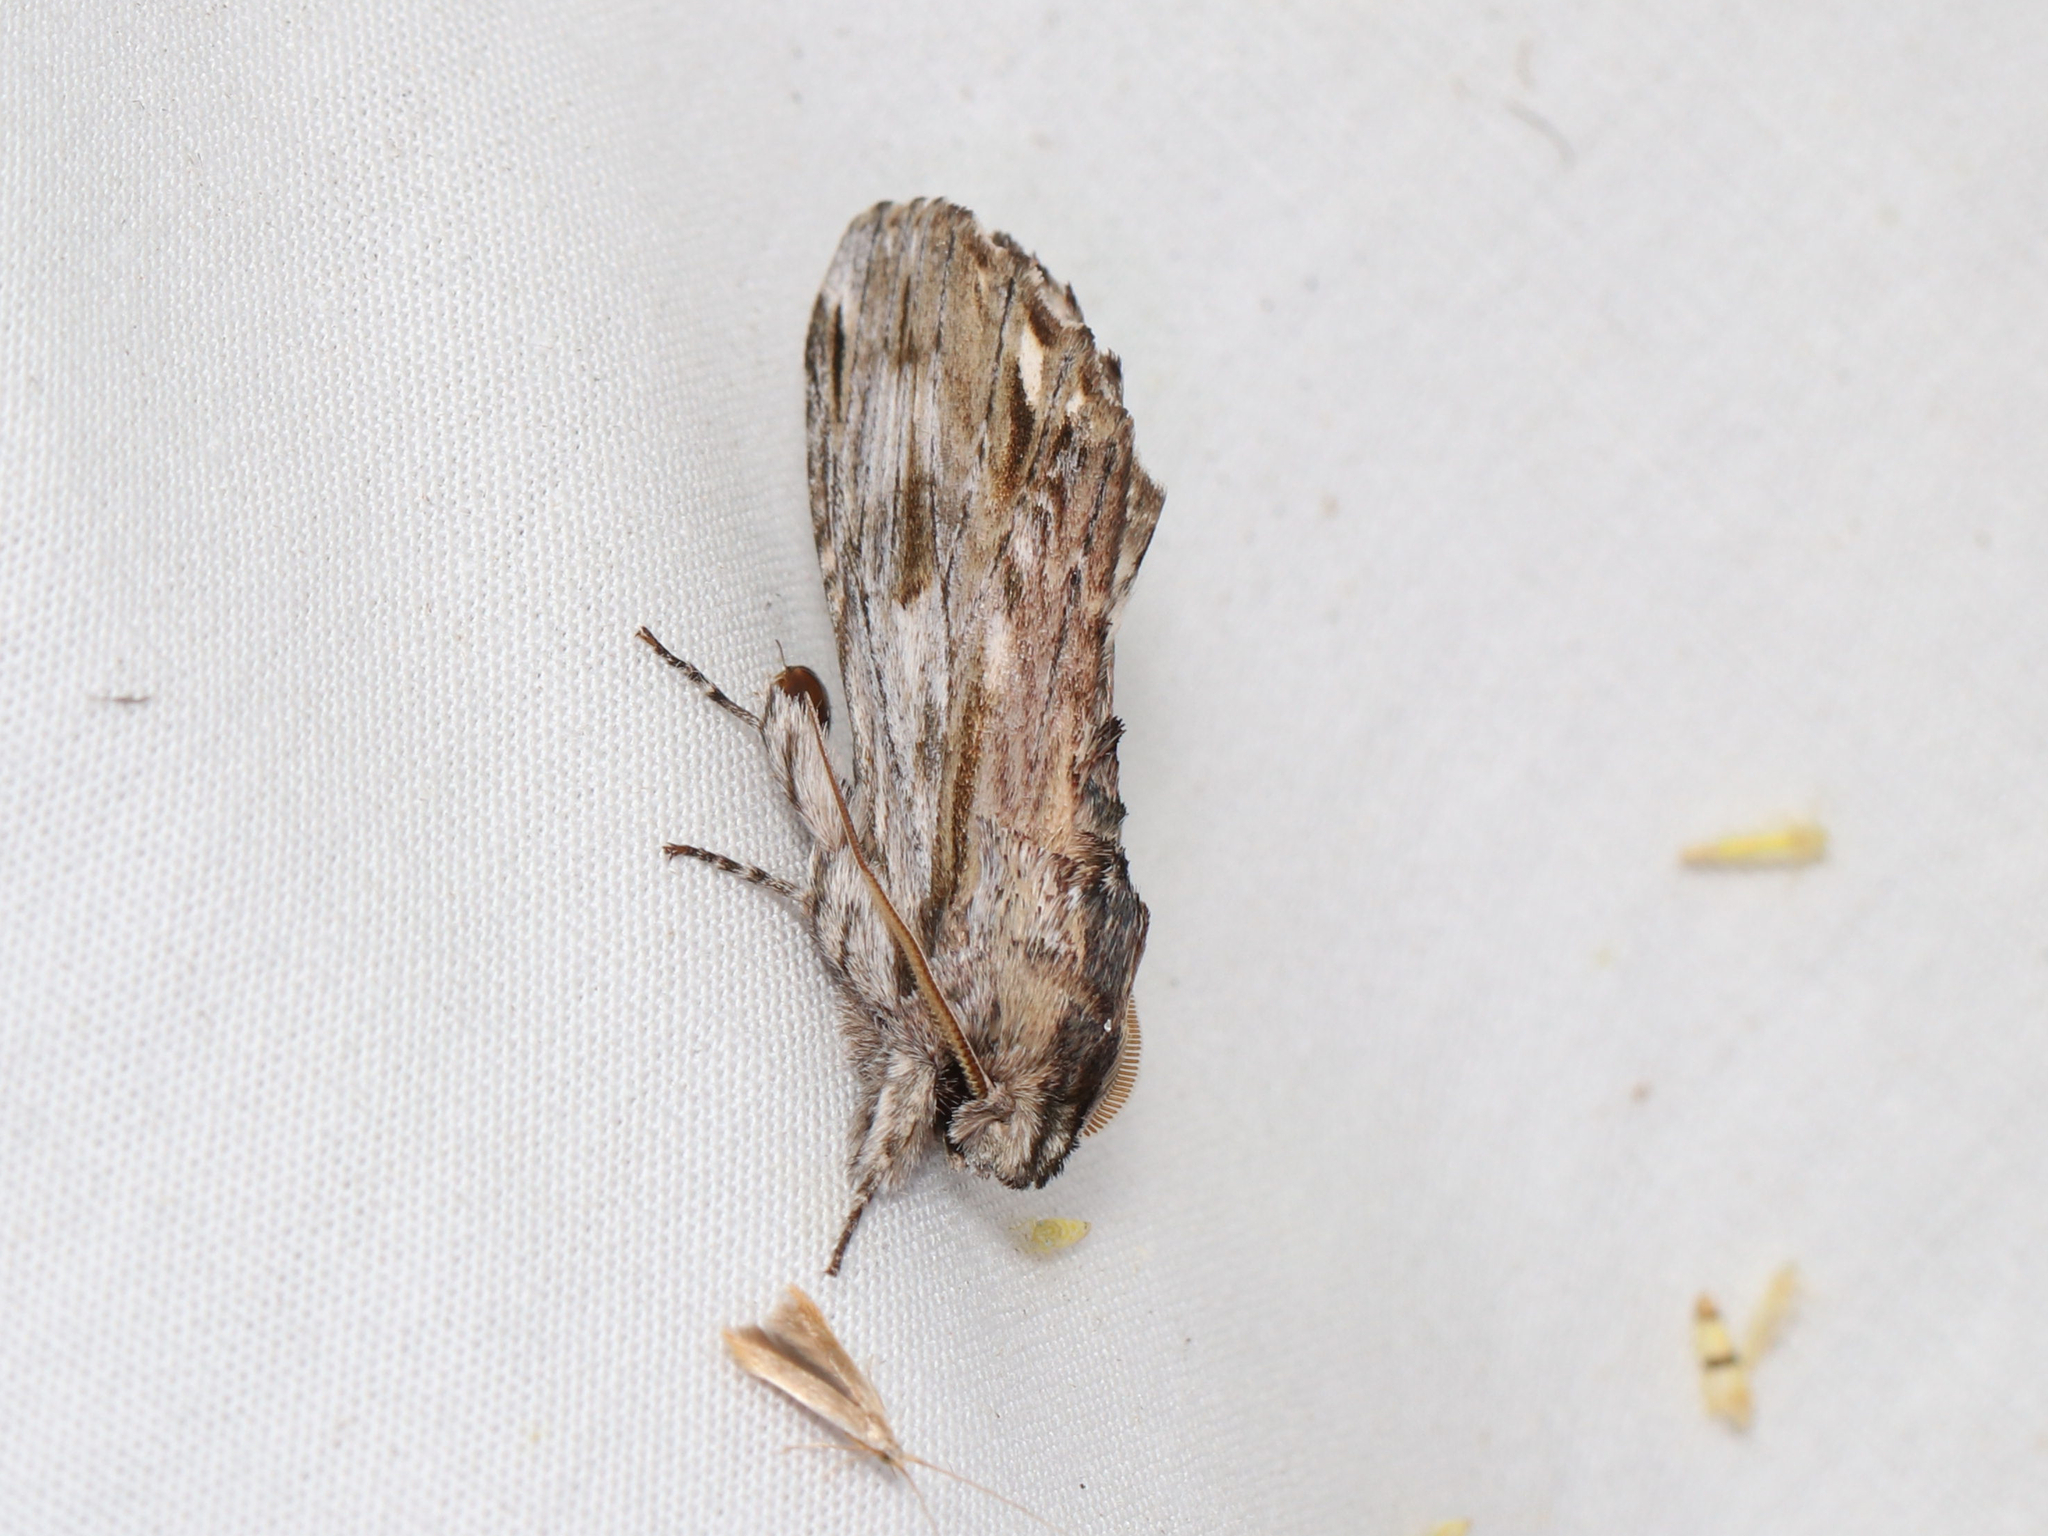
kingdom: Animalia
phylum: Arthropoda
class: Insecta
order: Lepidoptera
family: Notodontidae
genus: Oligocentria
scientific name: Oligocentria Ianassa lignicolor
